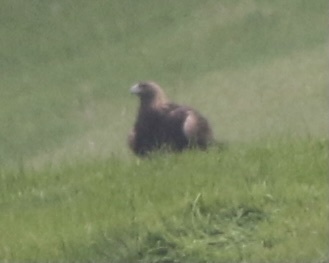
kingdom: Animalia
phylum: Chordata
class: Aves
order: Accipitriformes
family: Accipitridae
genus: Aquila
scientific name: Aquila chrysaetos
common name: Golden eagle
